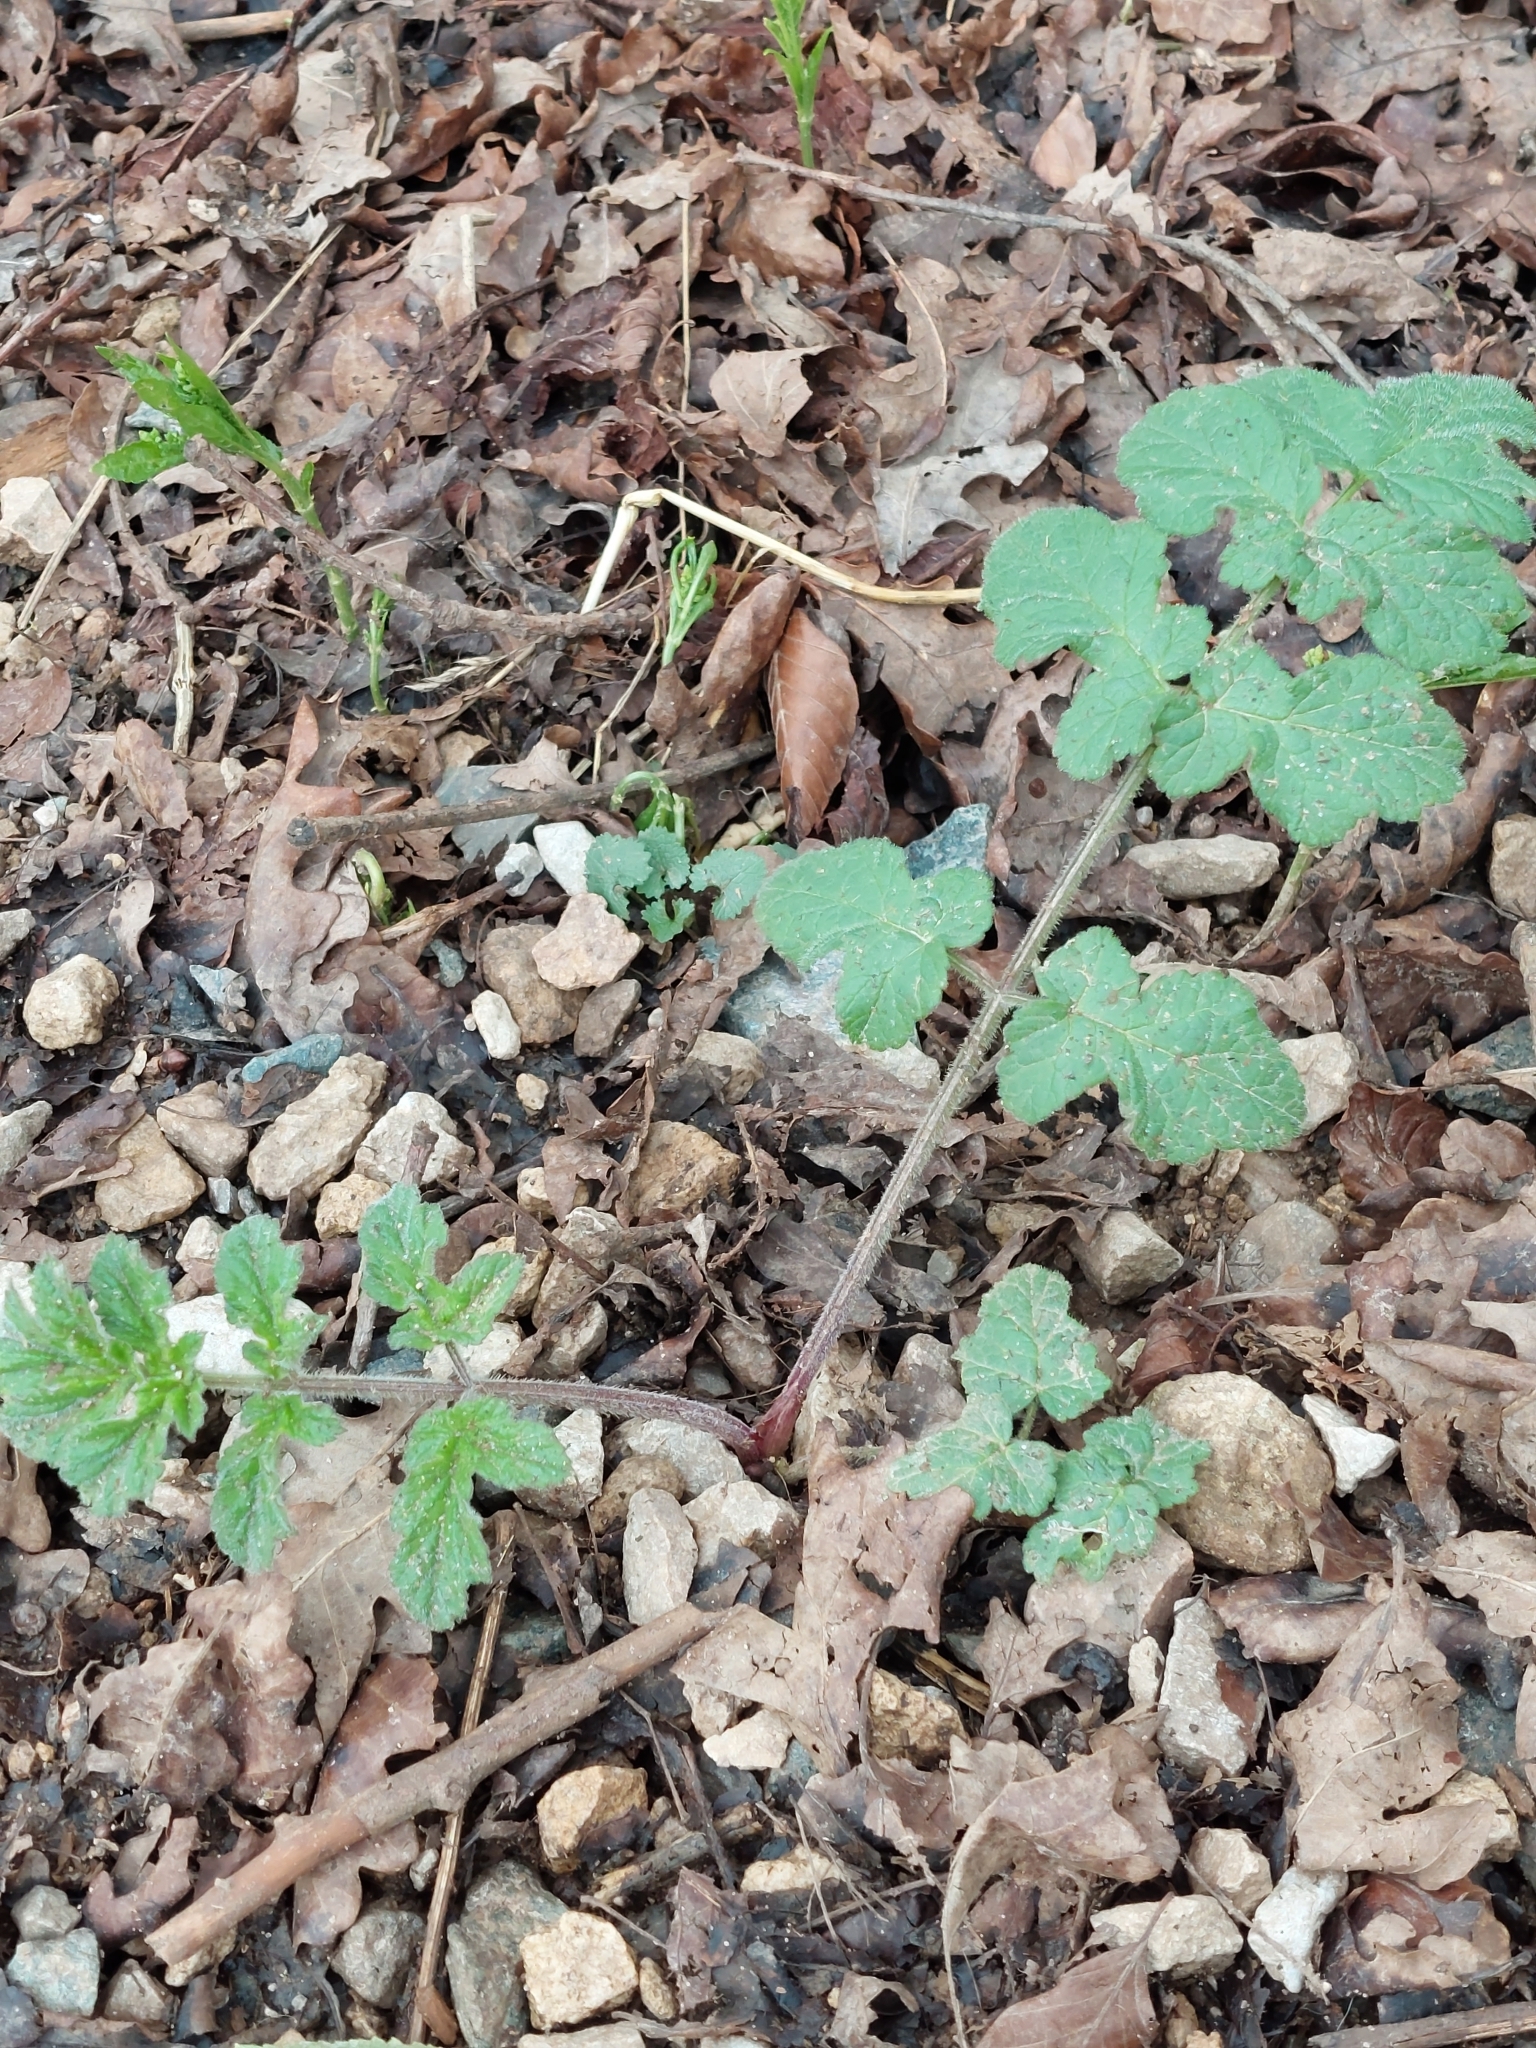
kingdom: Plantae
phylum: Tracheophyta
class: Magnoliopsida
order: Apiales
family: Apiaceae
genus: Heracleum
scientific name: Heracleum sphondylium
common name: Hogweed
